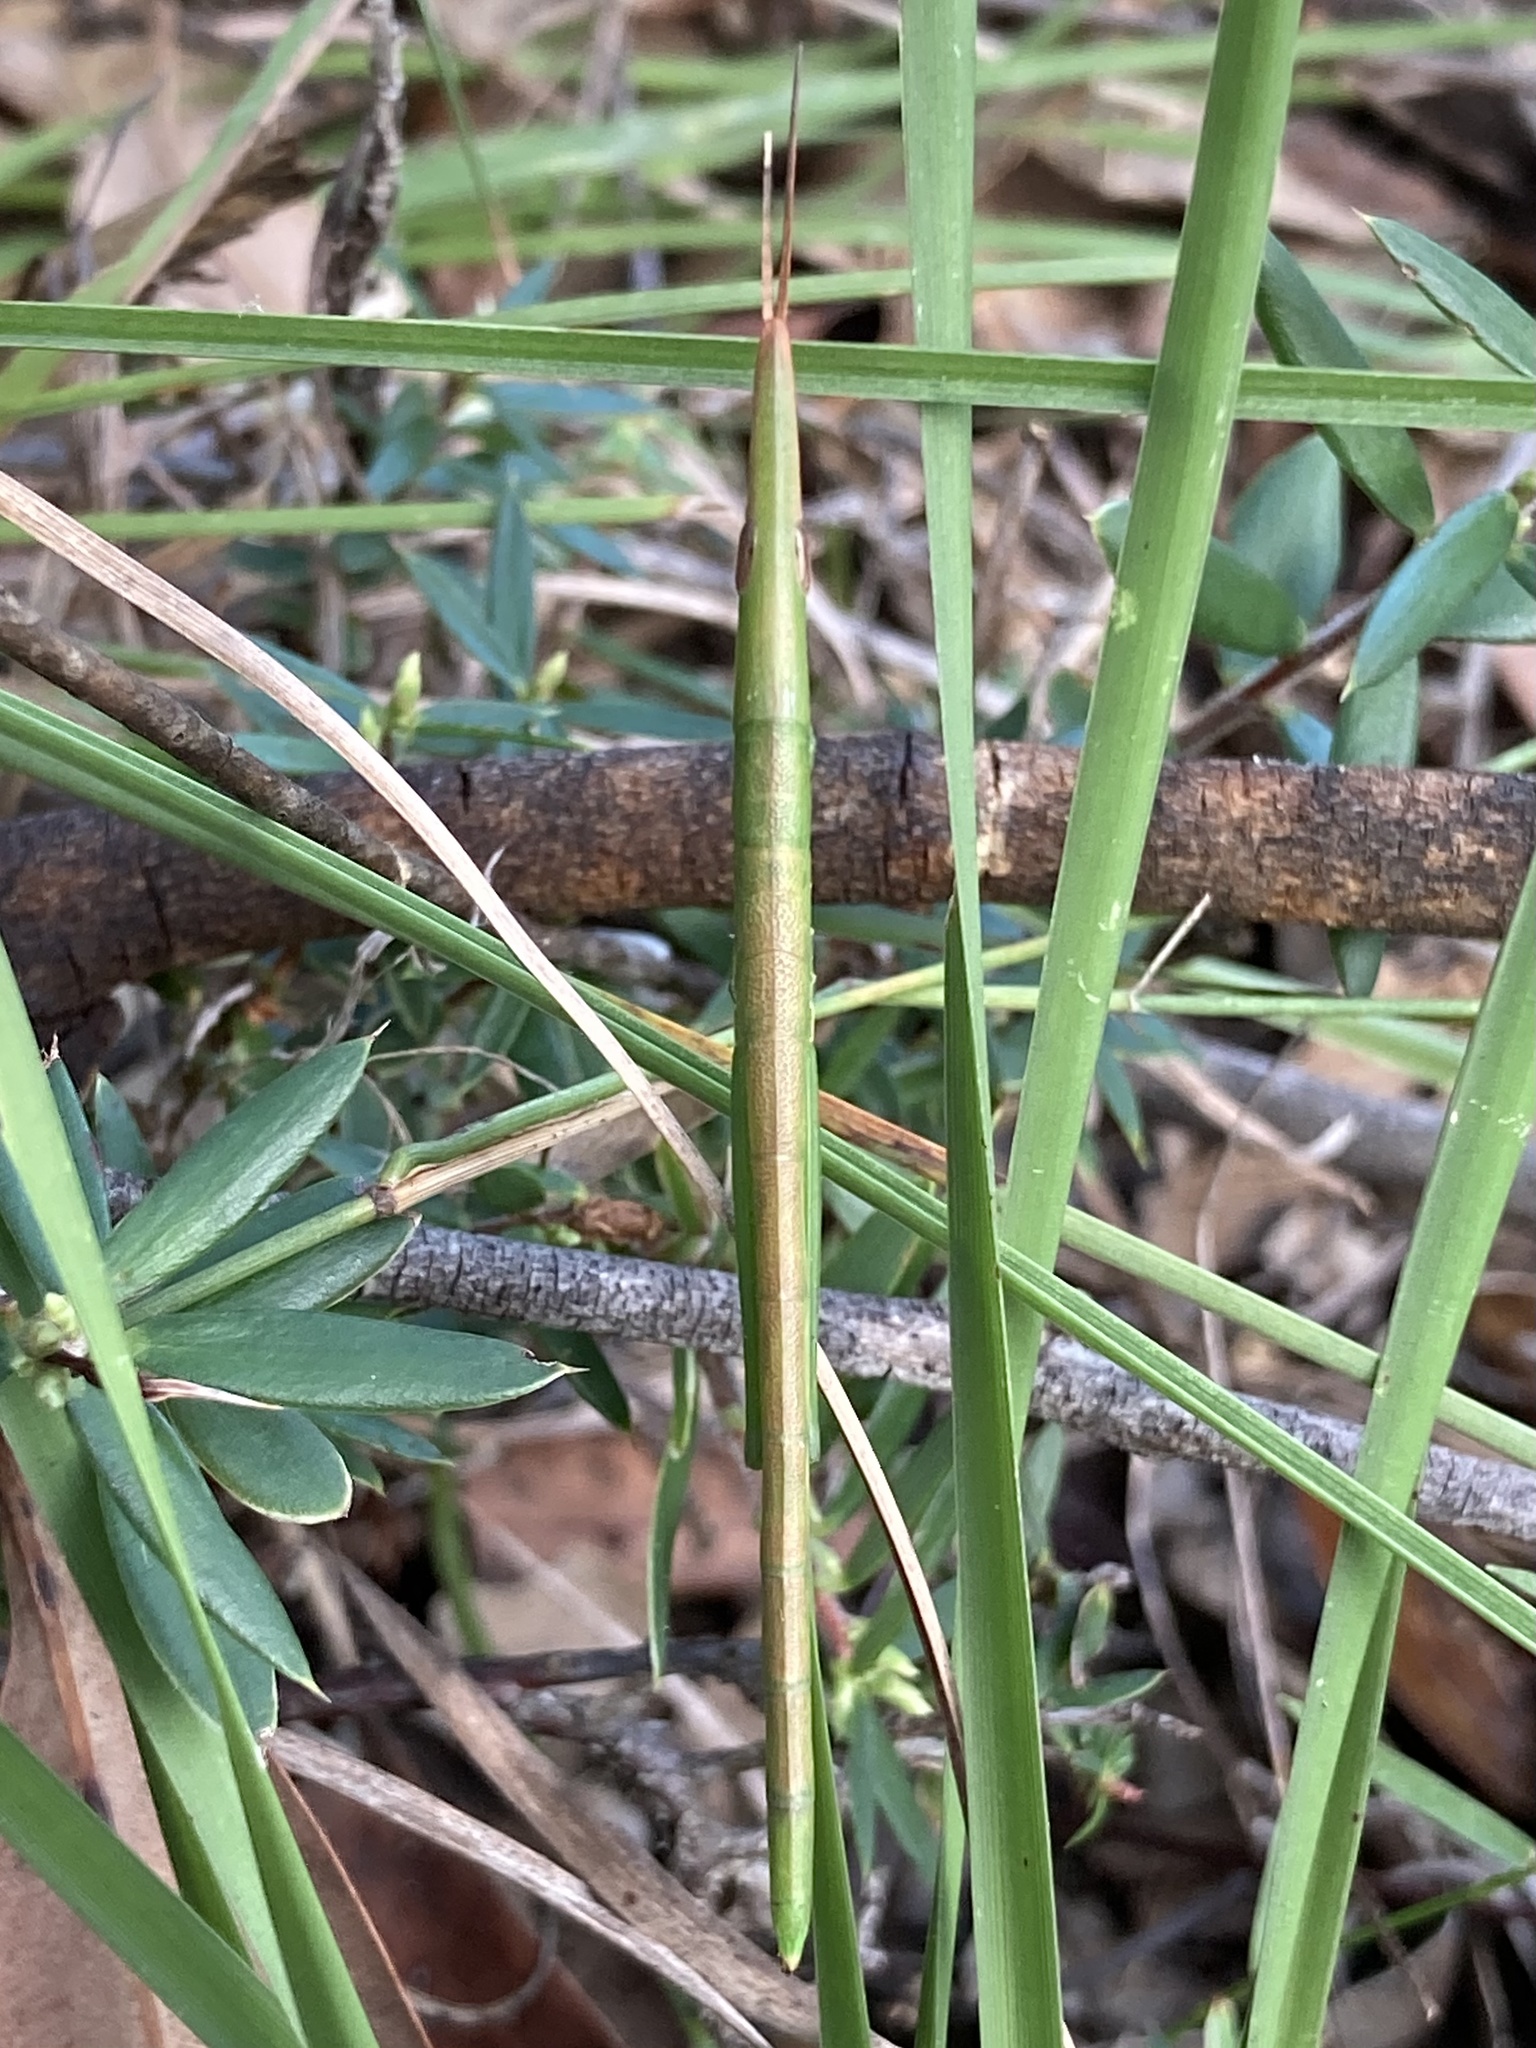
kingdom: Animalia
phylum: Arthropoda
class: Insecta
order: Orthoptera
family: Pyrgomorphidae
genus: Psednura
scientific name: Psednura musgravei
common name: Musgrave's psednura
